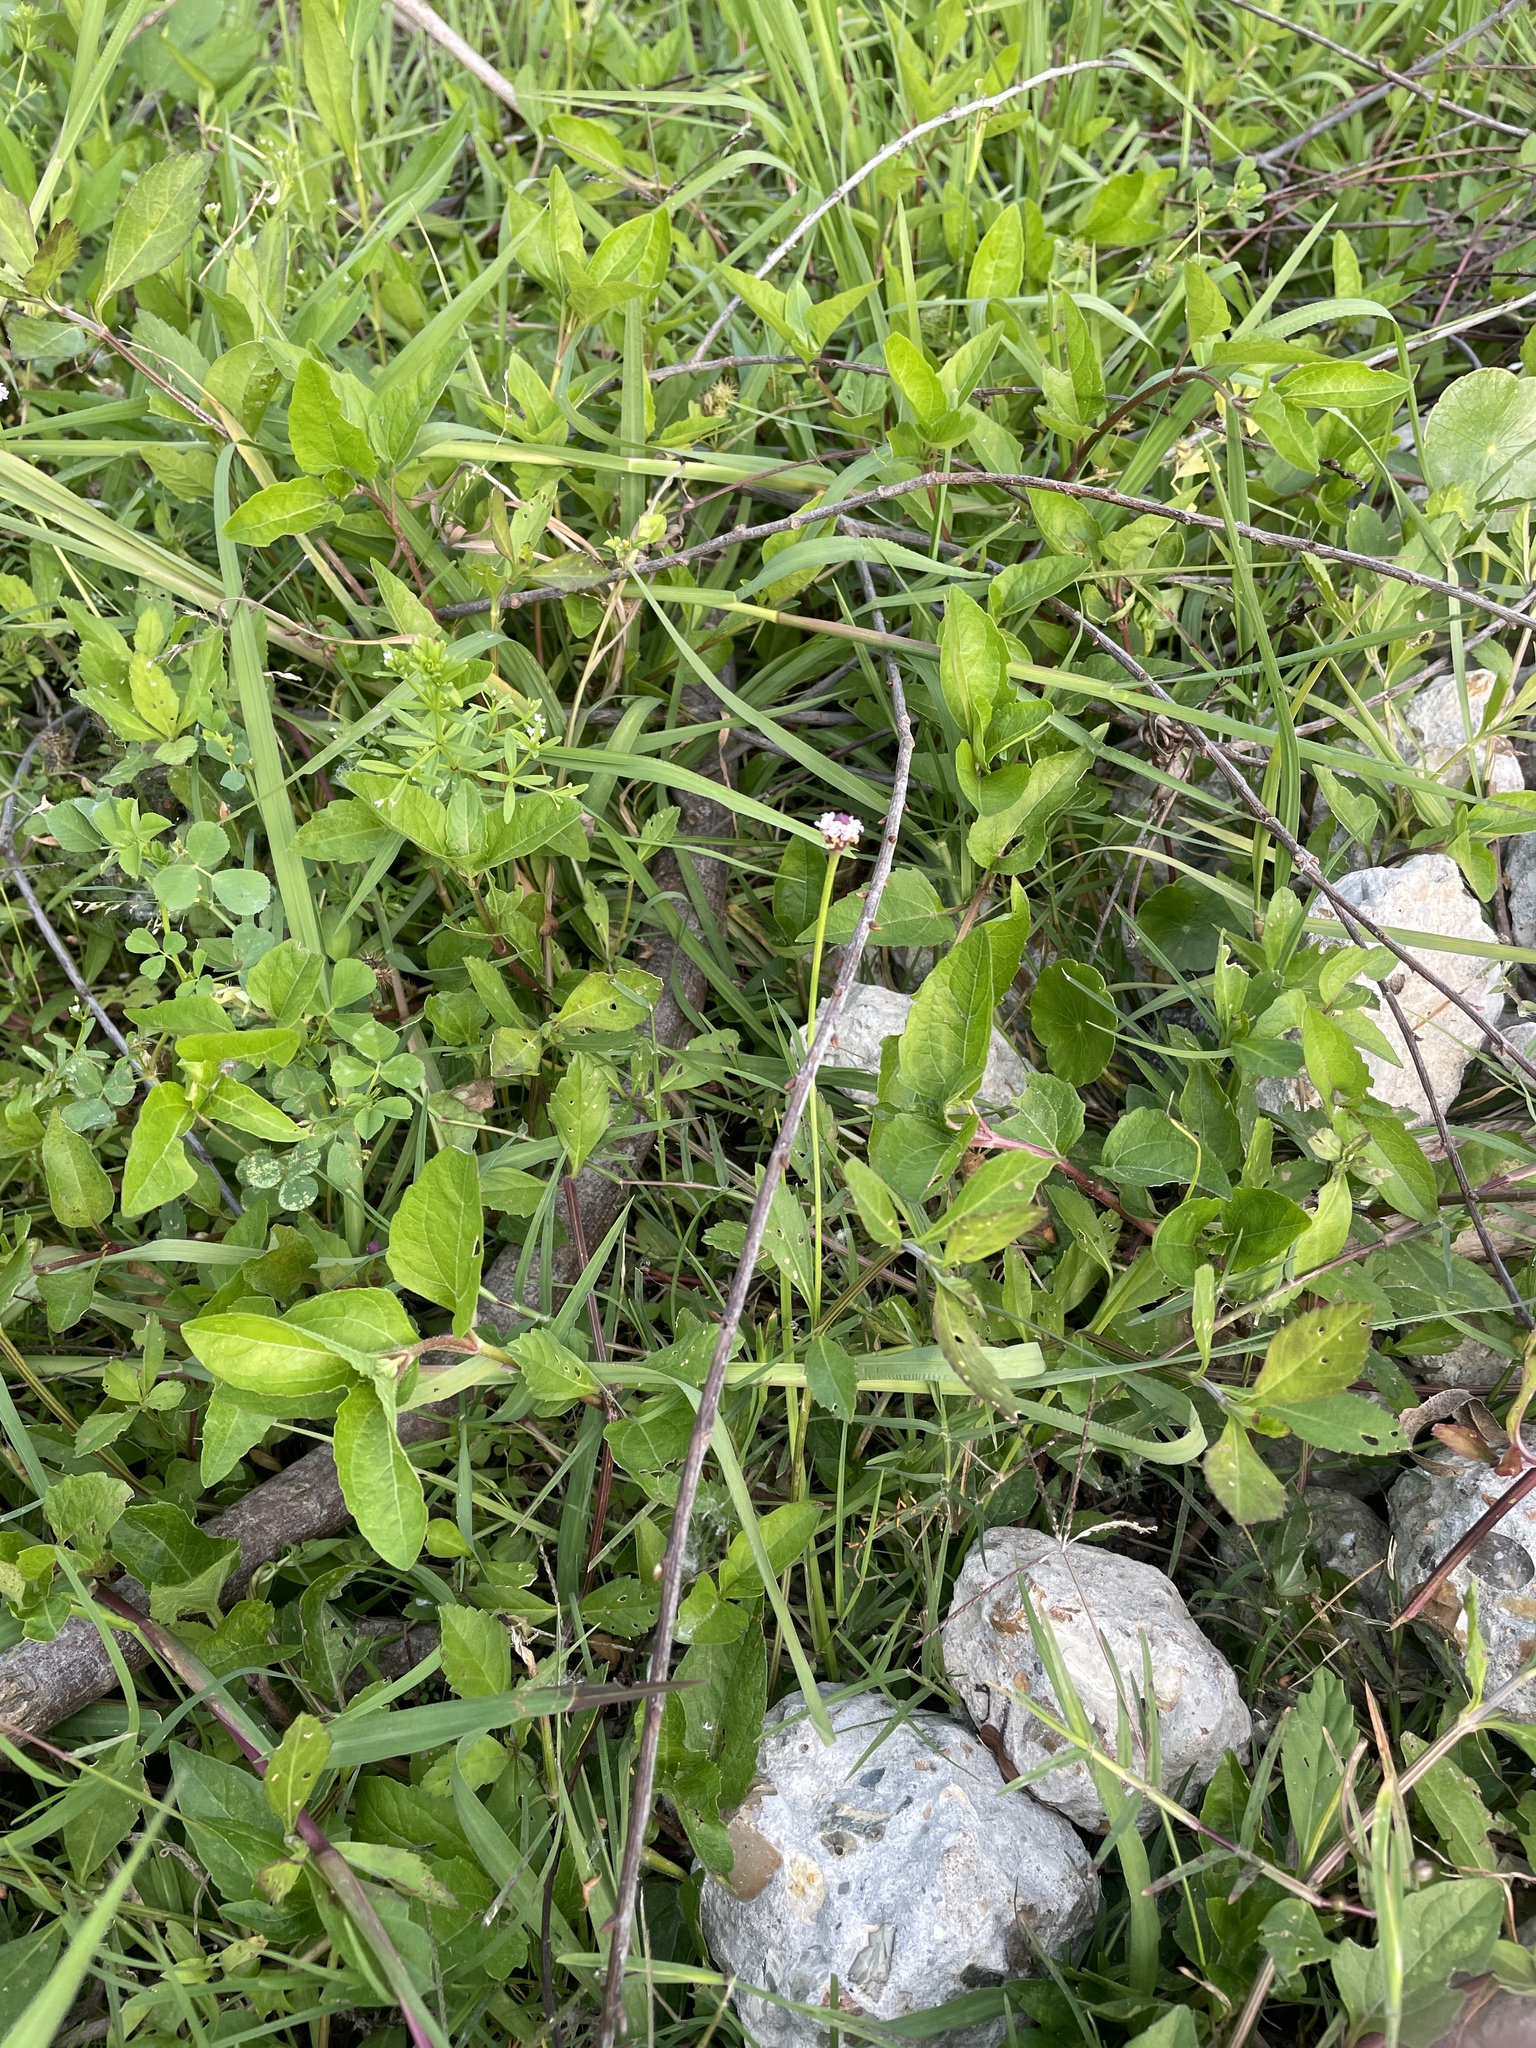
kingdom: Plantae
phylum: Tracheophyta
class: Magnoliopsida
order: Lamiales
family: Verbenaceae
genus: Phyla
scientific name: Phyla lanceolata
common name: Northern fogfruit
